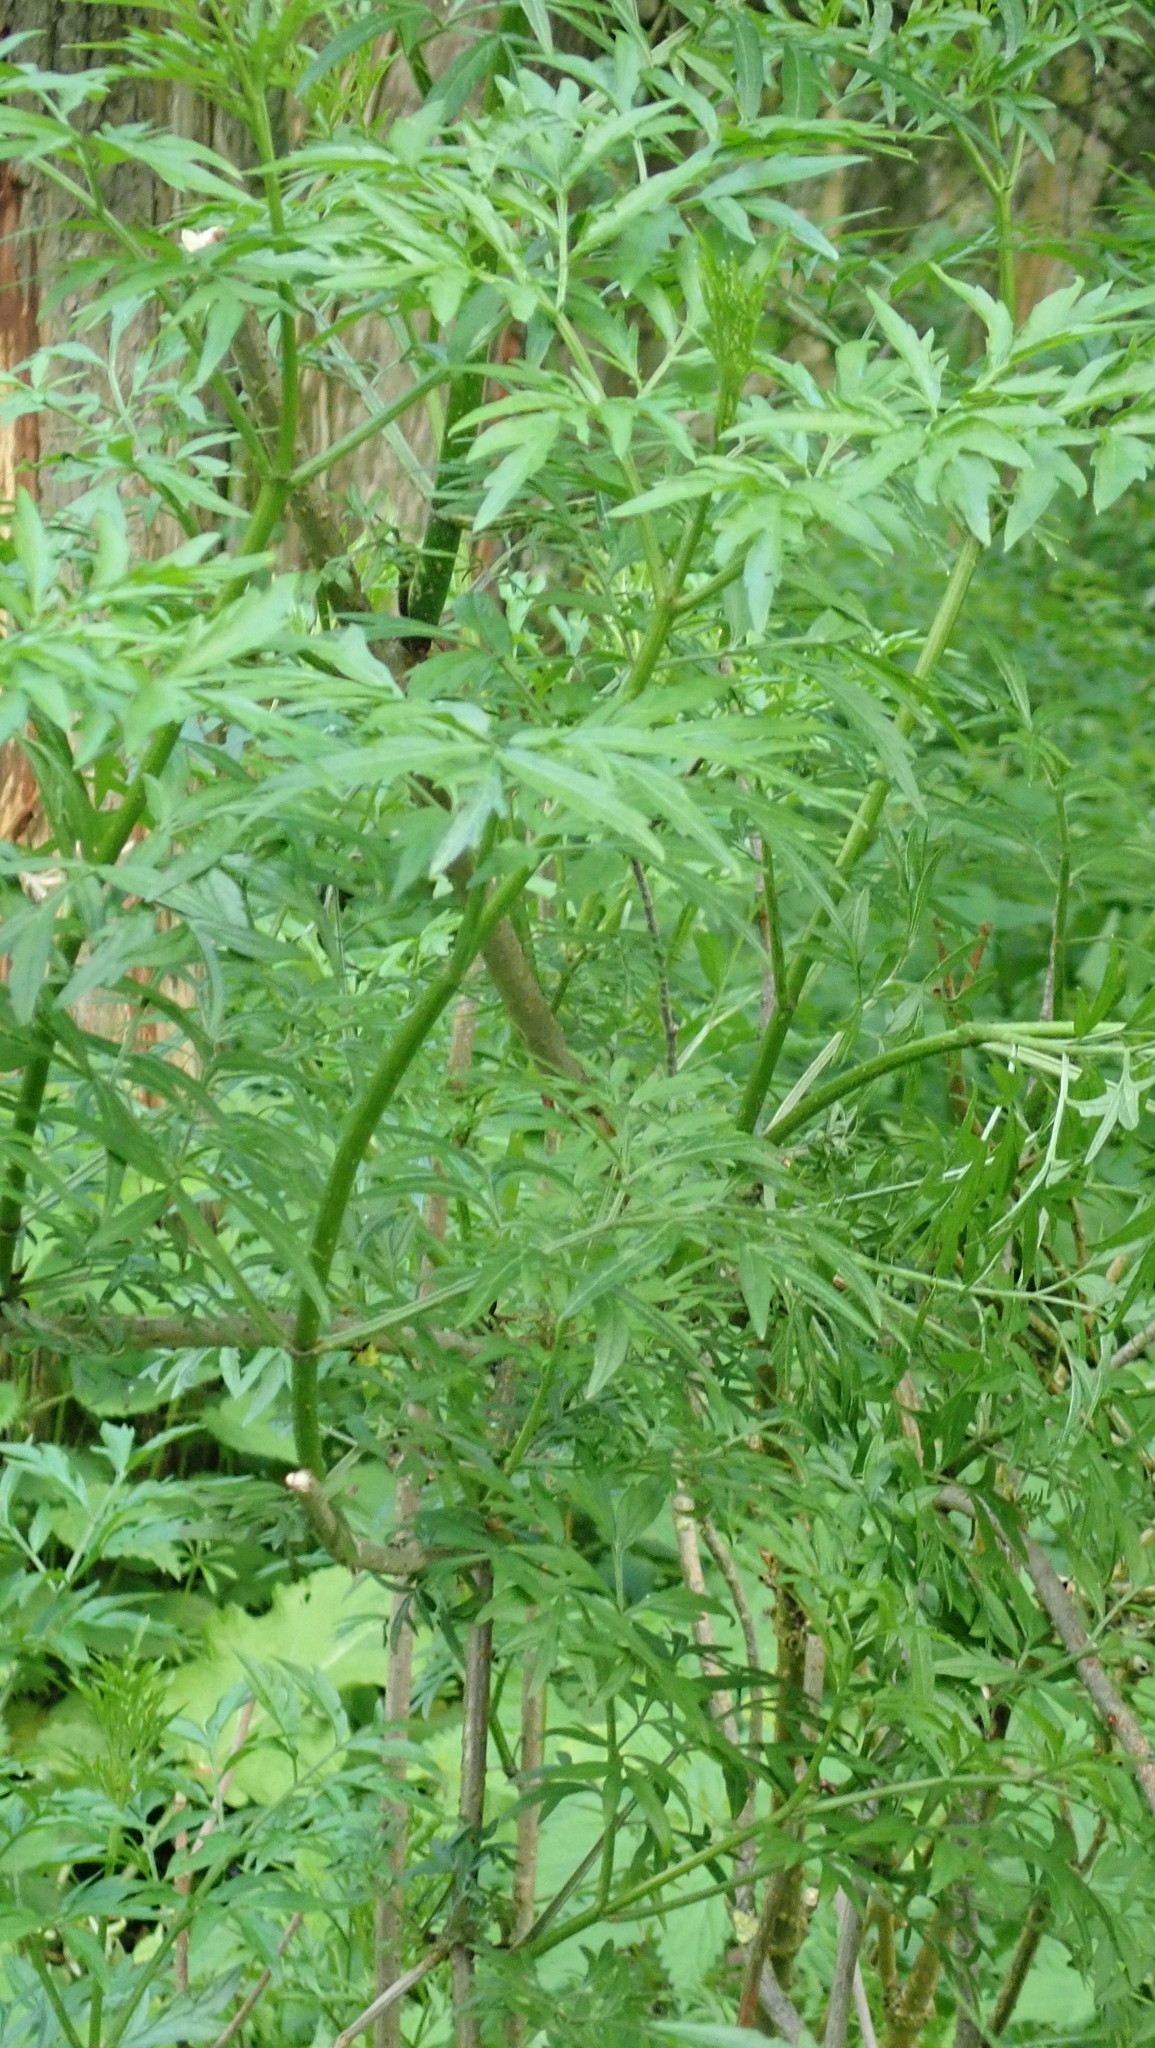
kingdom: Plantae
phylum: Tracheophyta
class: Magnoliopsida
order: Dipsacales
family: Viburnaceae
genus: Sambucus
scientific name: Sambucus nigra
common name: Elder
